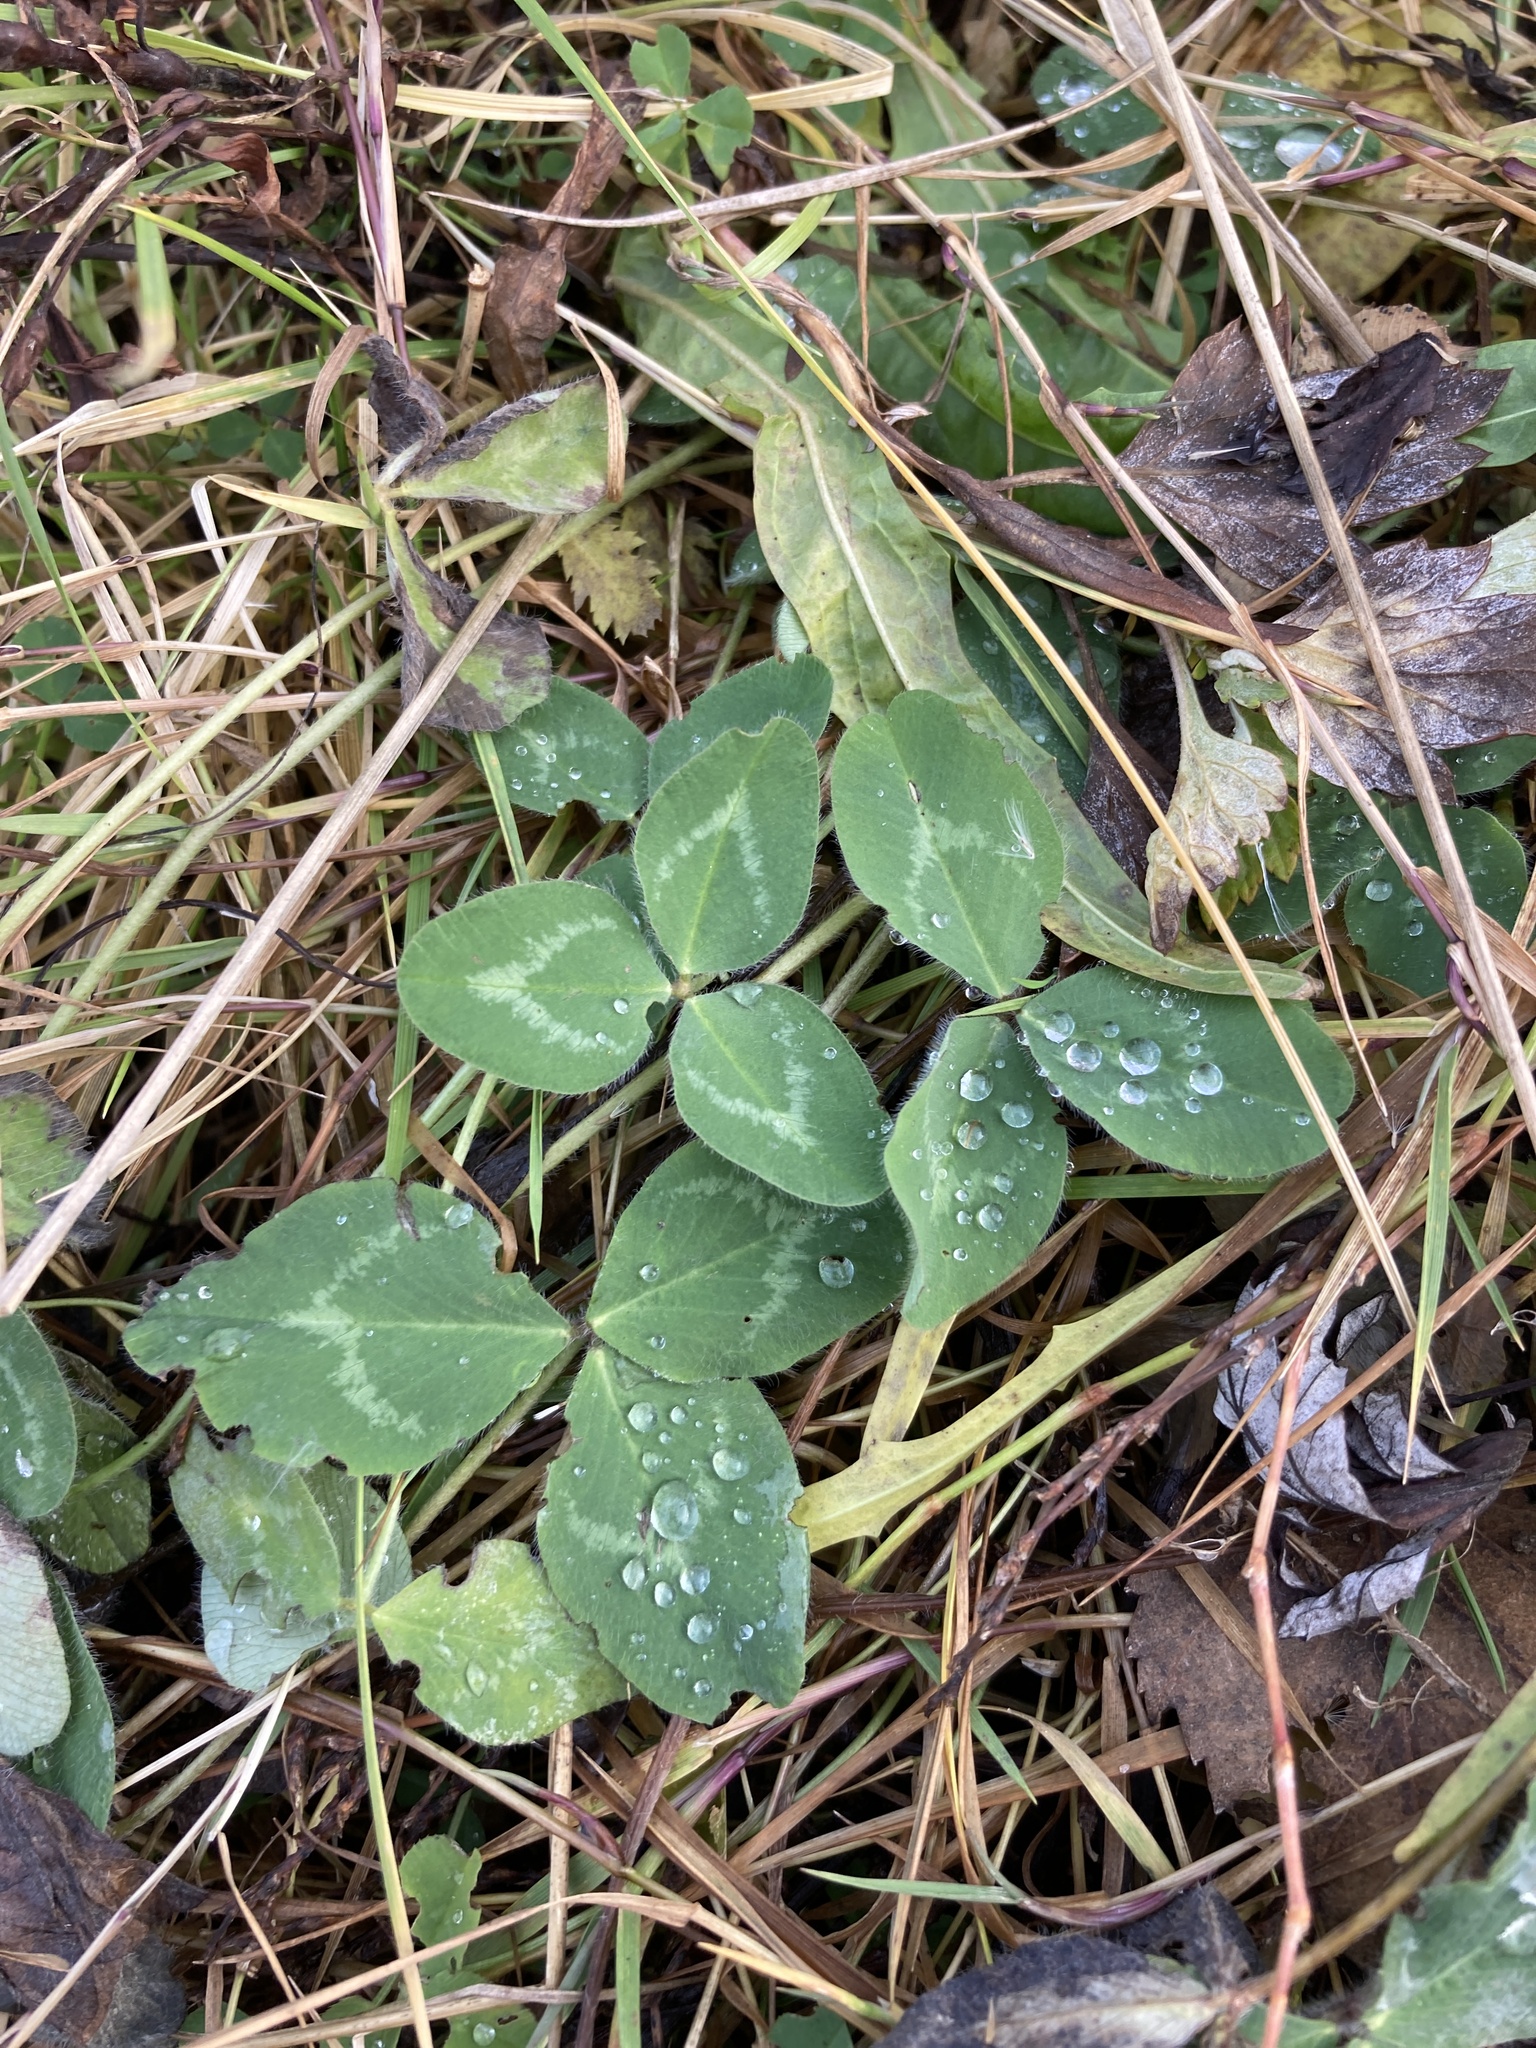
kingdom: Plantae
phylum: Tracheophyta
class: Magnoliopsida
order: Fabales
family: Fabaceae
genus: Trifolium
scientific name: Trifolium pratense
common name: Red clover
